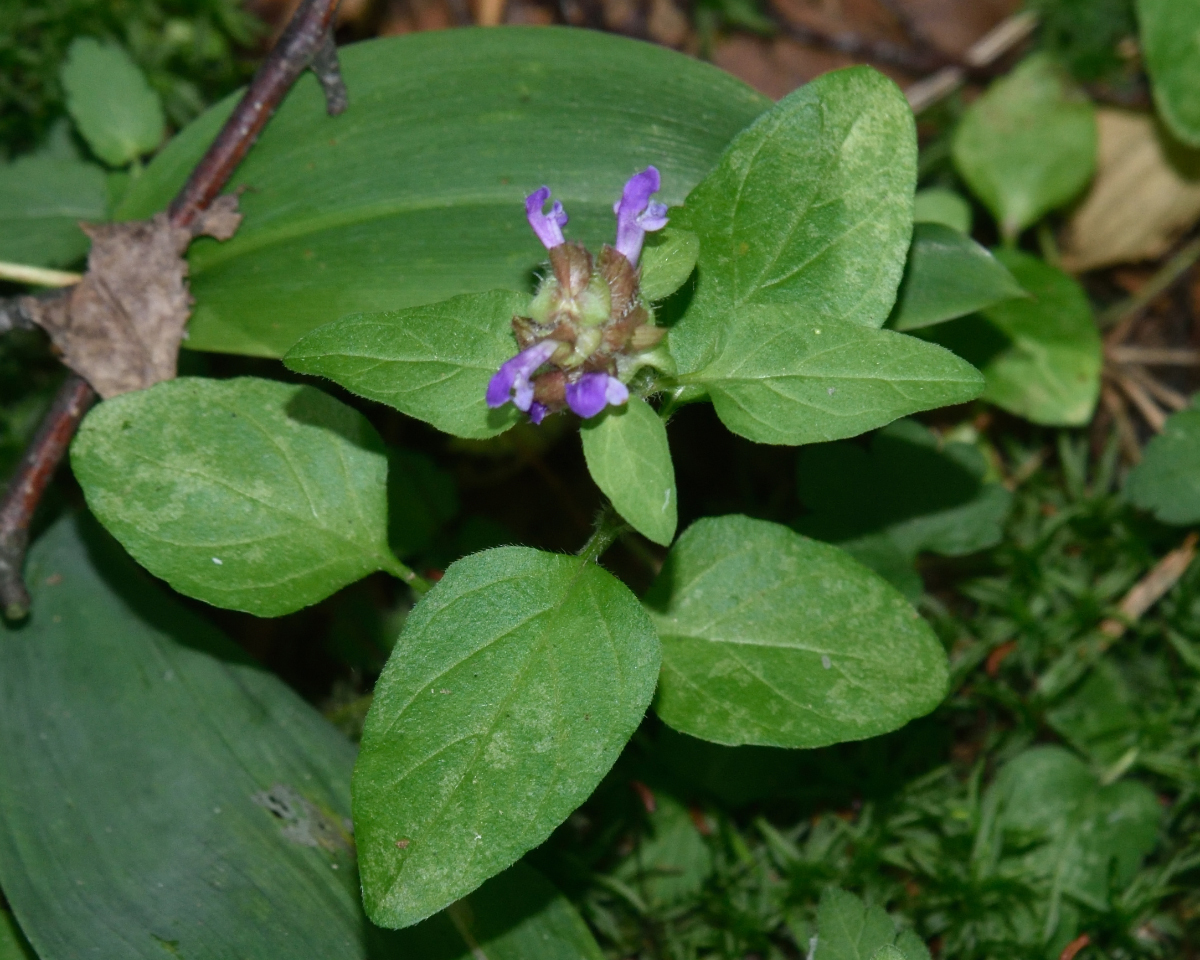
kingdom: Plantae
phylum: Tracheophyta
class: Magnoliopsida
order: Lamiales
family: Lamiaceae
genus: Prunella
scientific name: Prunella vulgaris
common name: Heal-all
